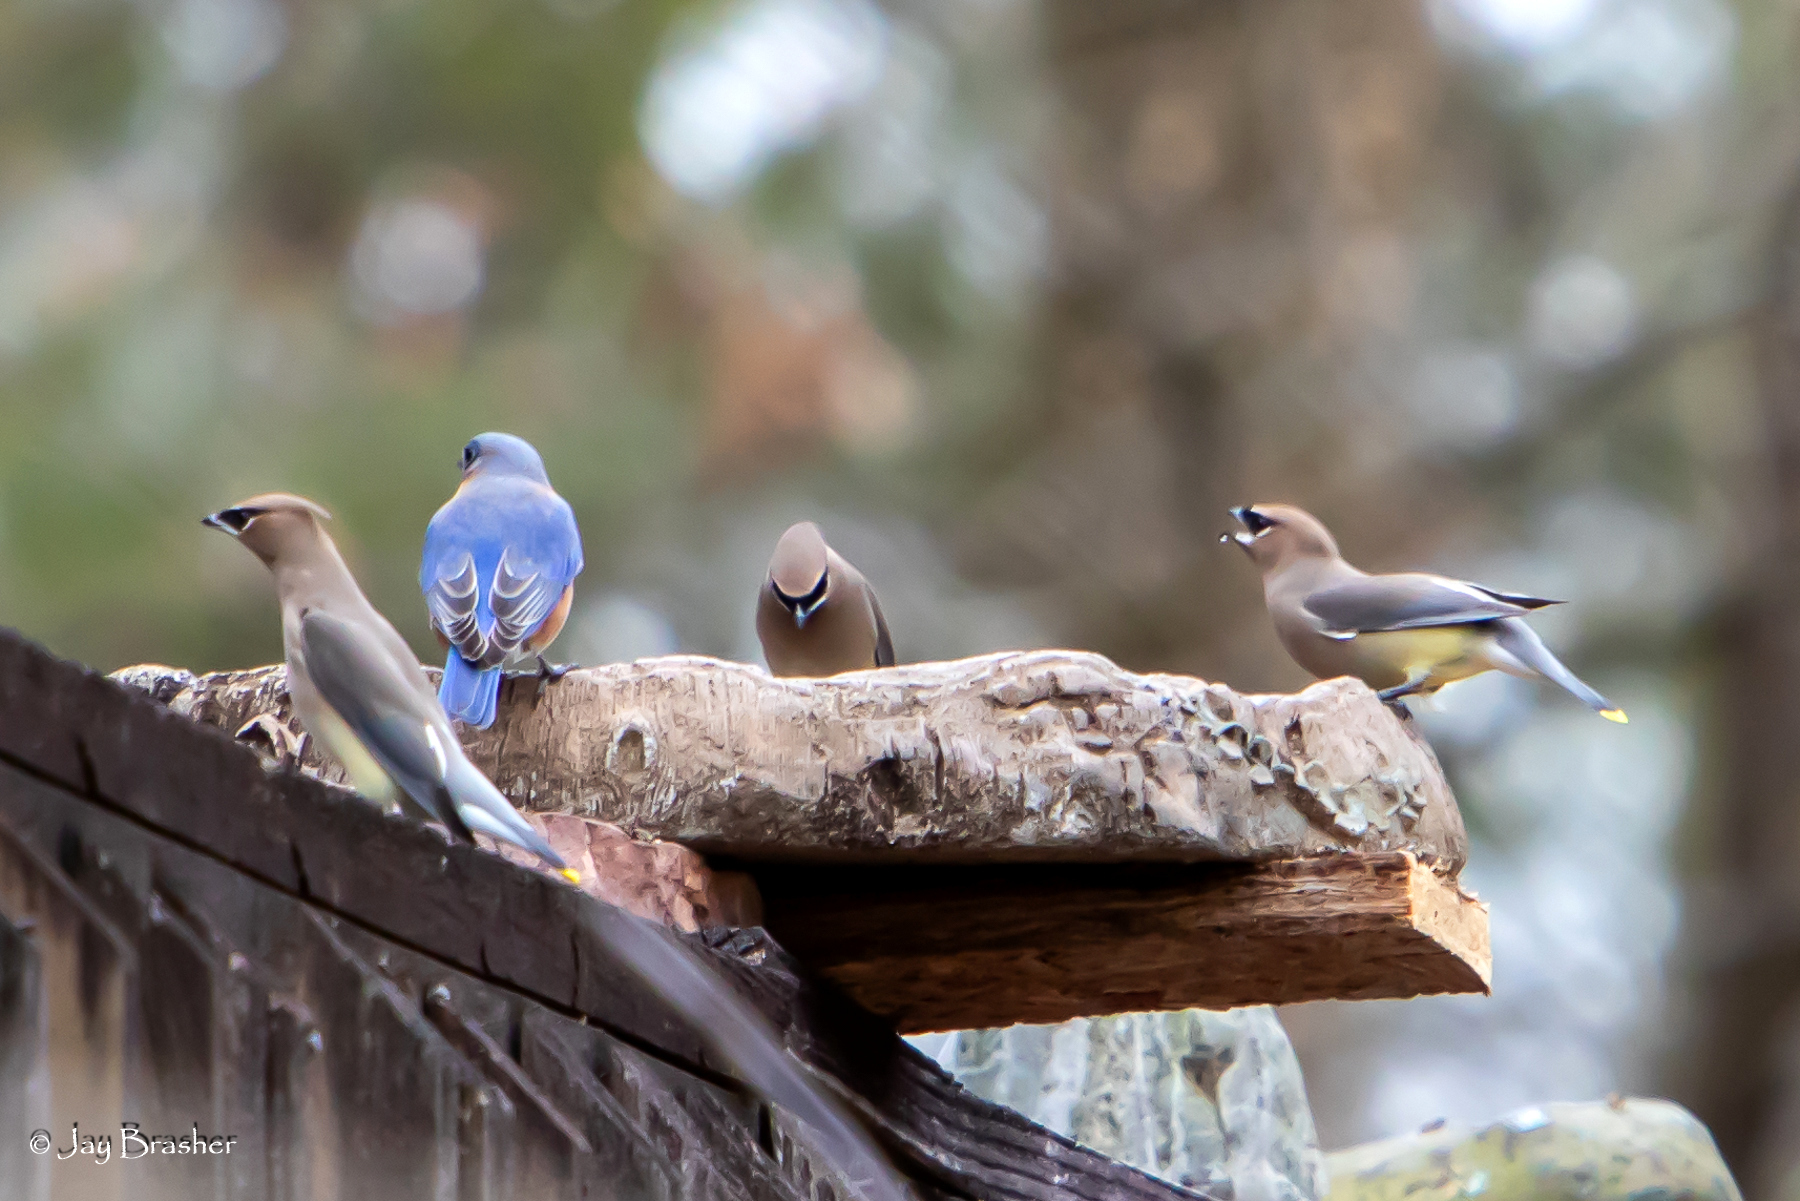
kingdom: Animalia
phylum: Chordata
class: Aves
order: Passeriformes
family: Bombycillidae
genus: Bombycilla
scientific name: Bombycilla cedrorum
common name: Cedar waxwing
